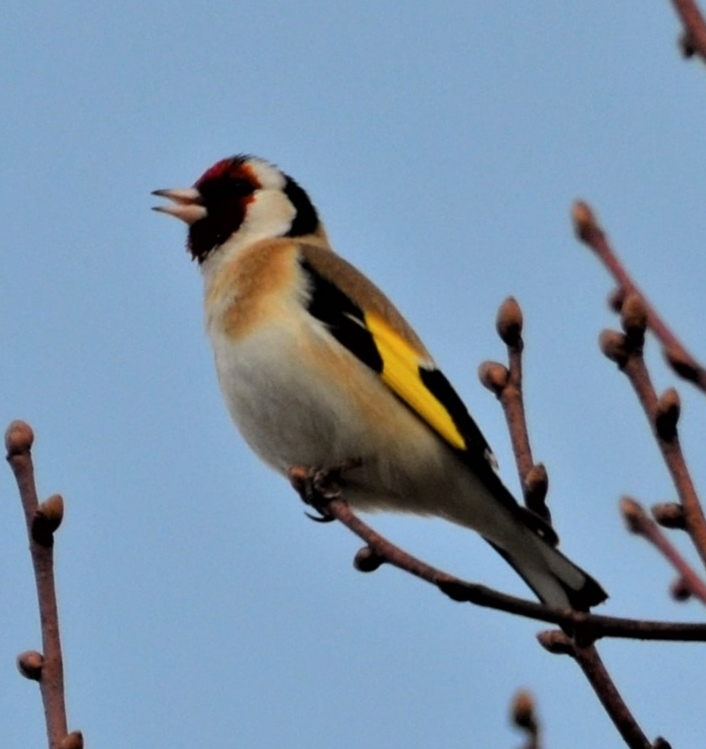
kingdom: Animalia
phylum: Chordata
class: Aves
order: Passeriformes
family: Fringillidae
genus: Carduelis
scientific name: Carduelis carduelis
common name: European goldfinch
